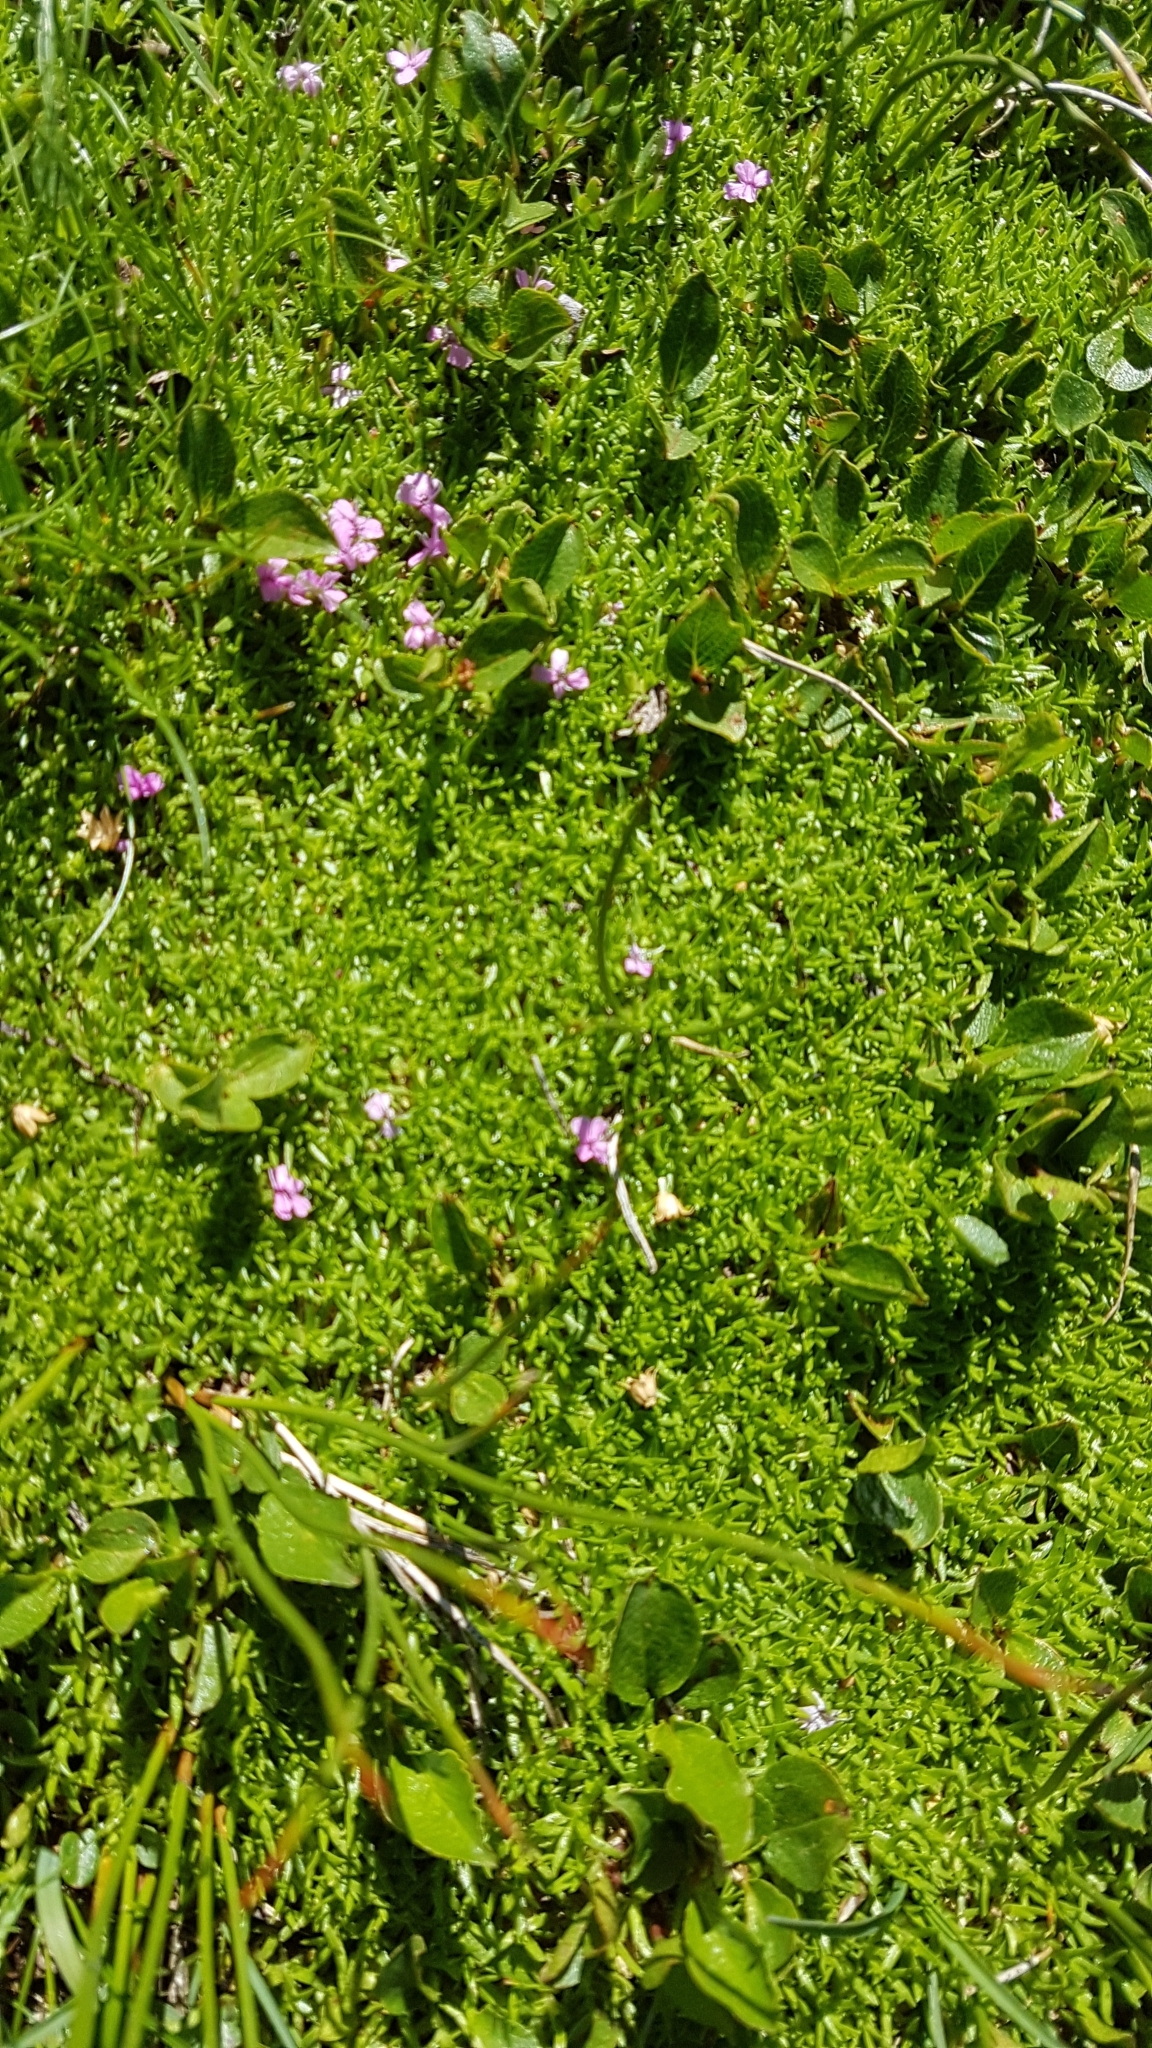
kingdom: Plantae
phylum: Tracheophyta
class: Magnoliopsida
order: Caryophyllales
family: Caryophyllaceae
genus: Silene
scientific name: Silene acaulis
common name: Moss campion
